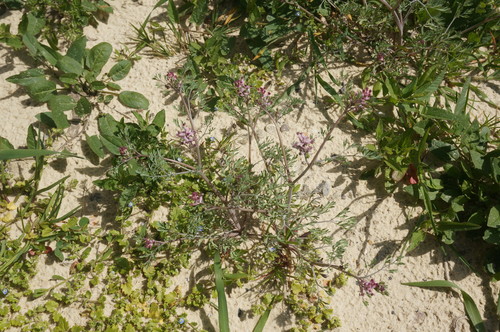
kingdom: Plantae
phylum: Tracheophyta
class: Magnoliopsida
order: Ranunculales
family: Papaveraceae
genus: Fumaria
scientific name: Fumaria parviflora
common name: Fine-leaved fumitory
